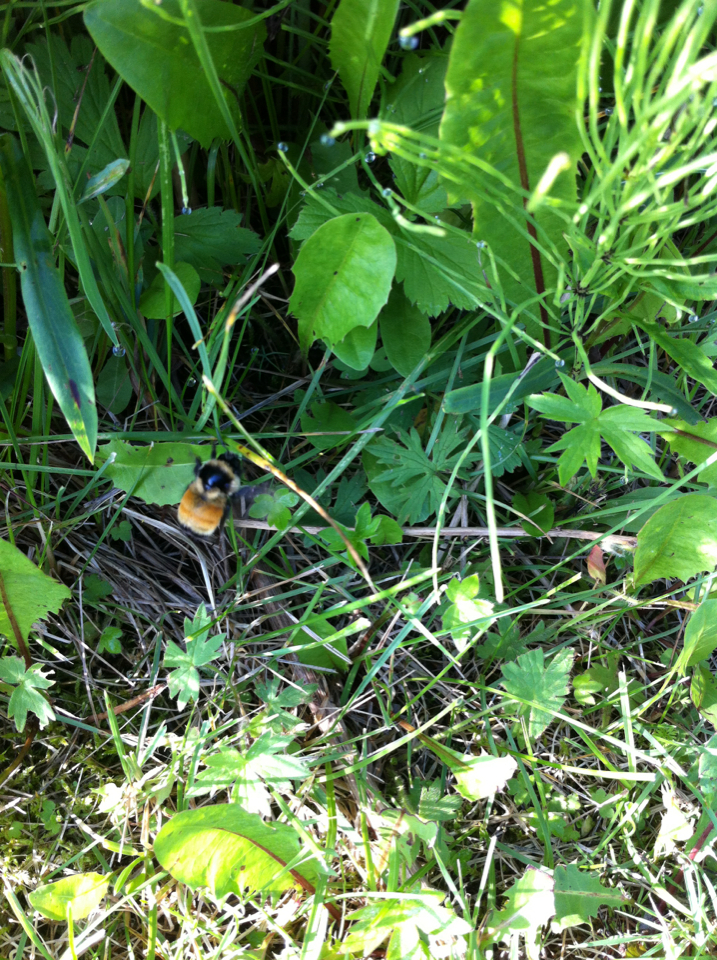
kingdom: Animalia
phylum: Arthropoda
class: Insecta
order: Hymenoptera
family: Apidae
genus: Bombus
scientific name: Bombus ternarius
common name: Tri-colored bumble bee
